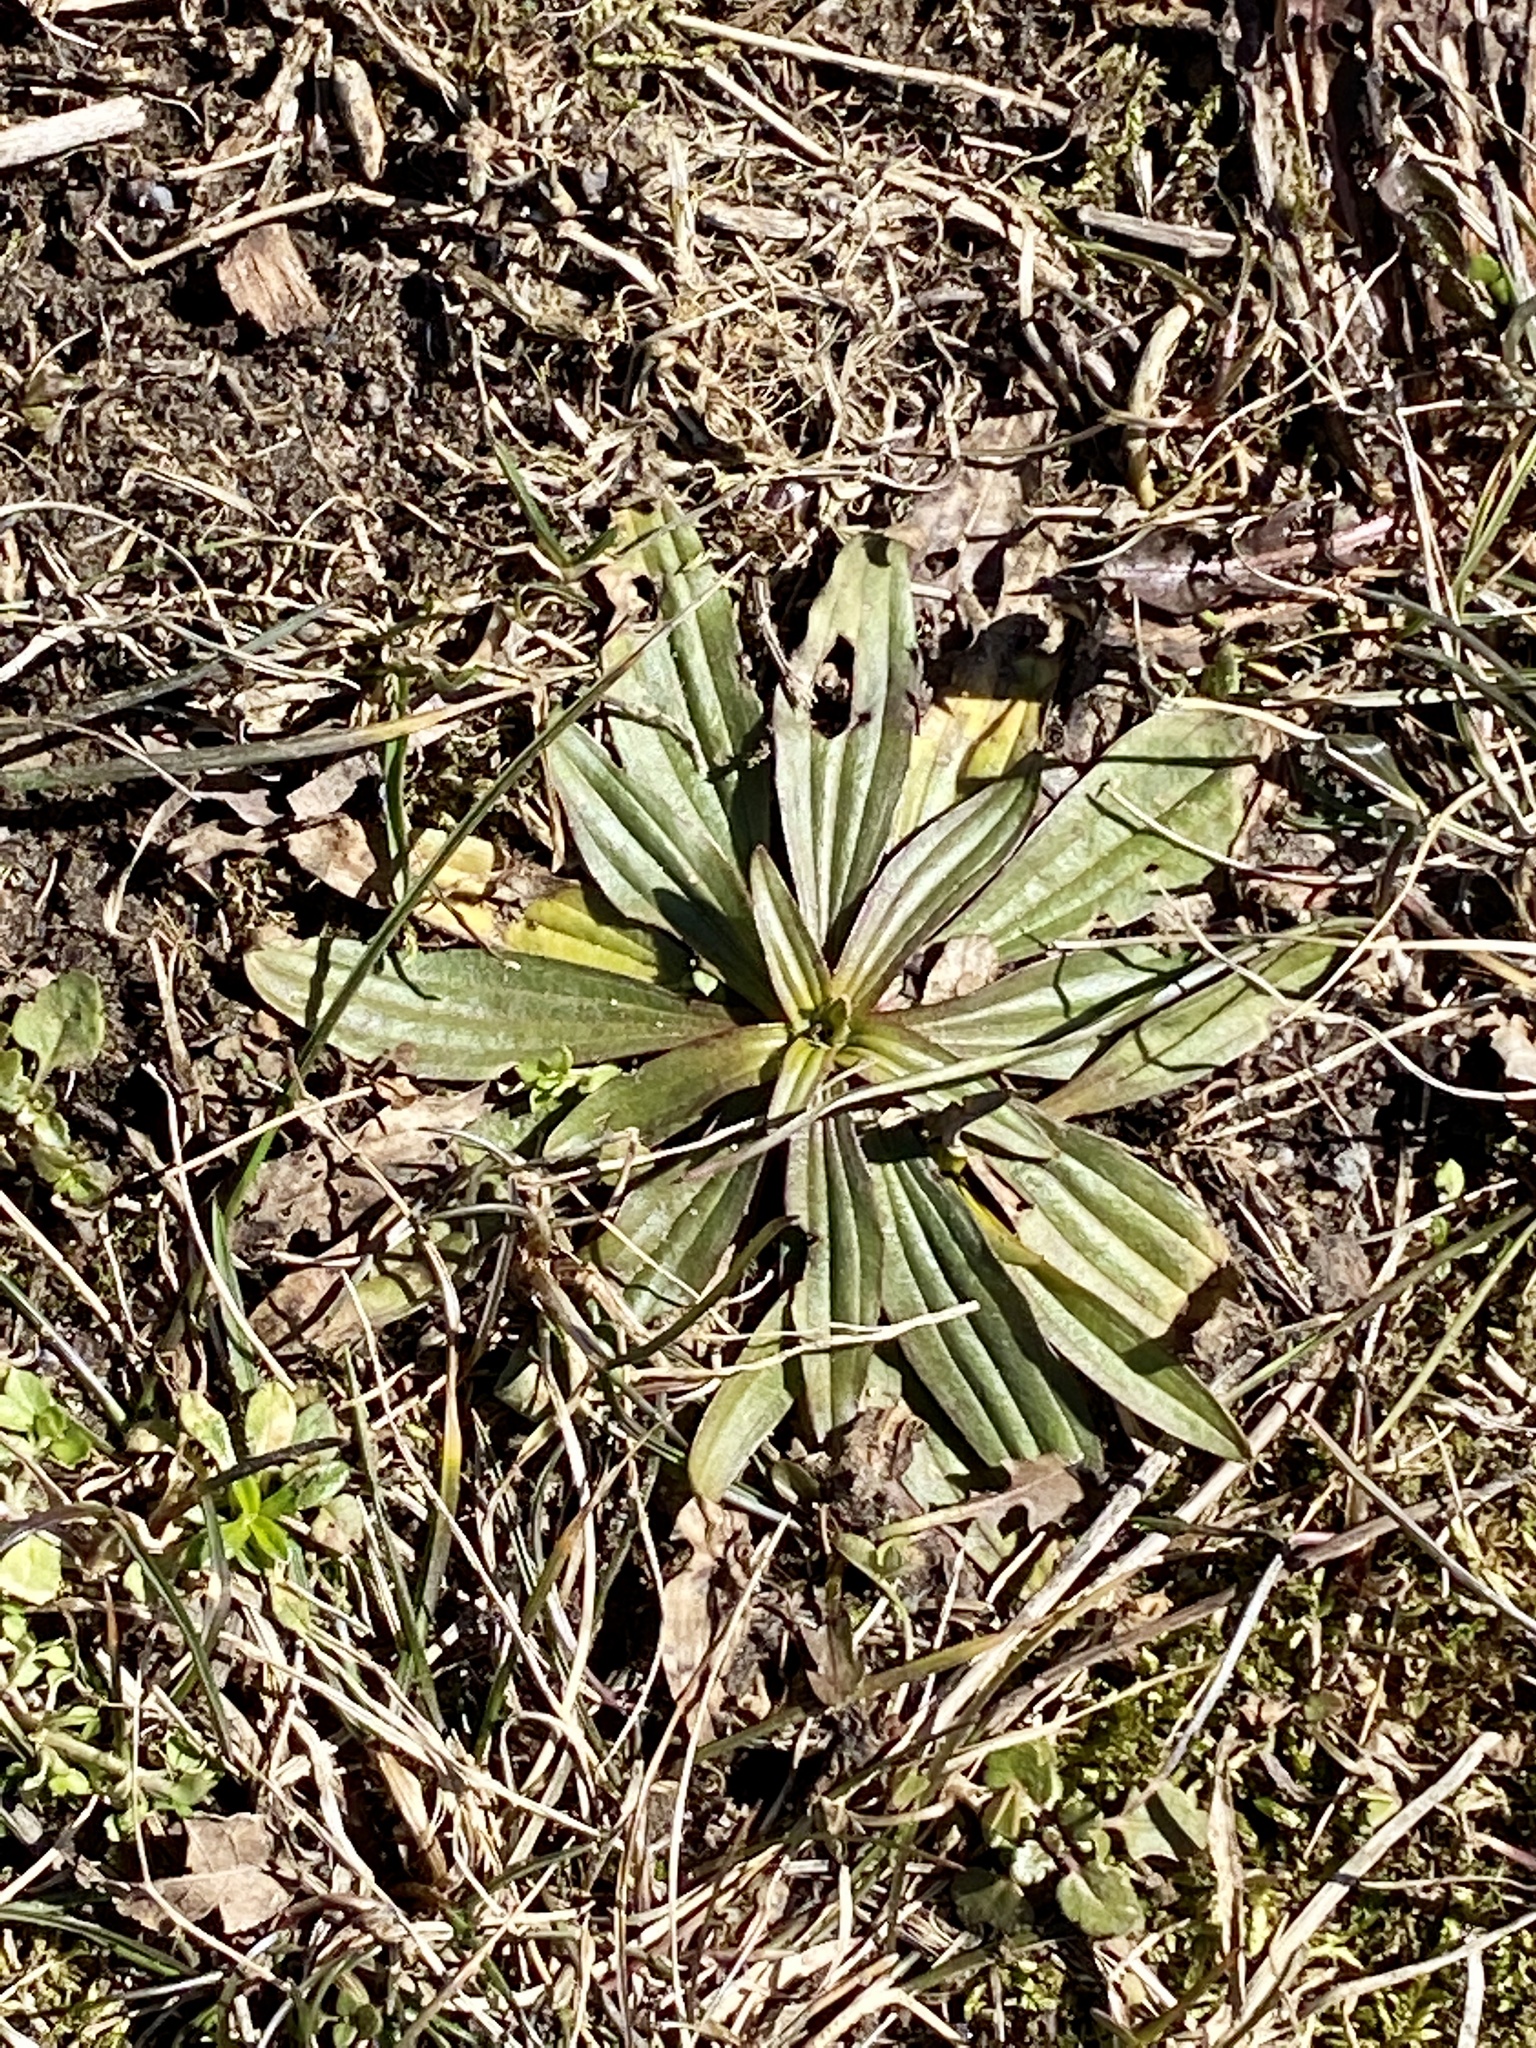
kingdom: Plantae
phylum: Tracheophyta
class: Magnoliopsida
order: Lamiales
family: Plantaginaceae
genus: Plantago
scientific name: Plantago lanceolata
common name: Ribwort plantain
